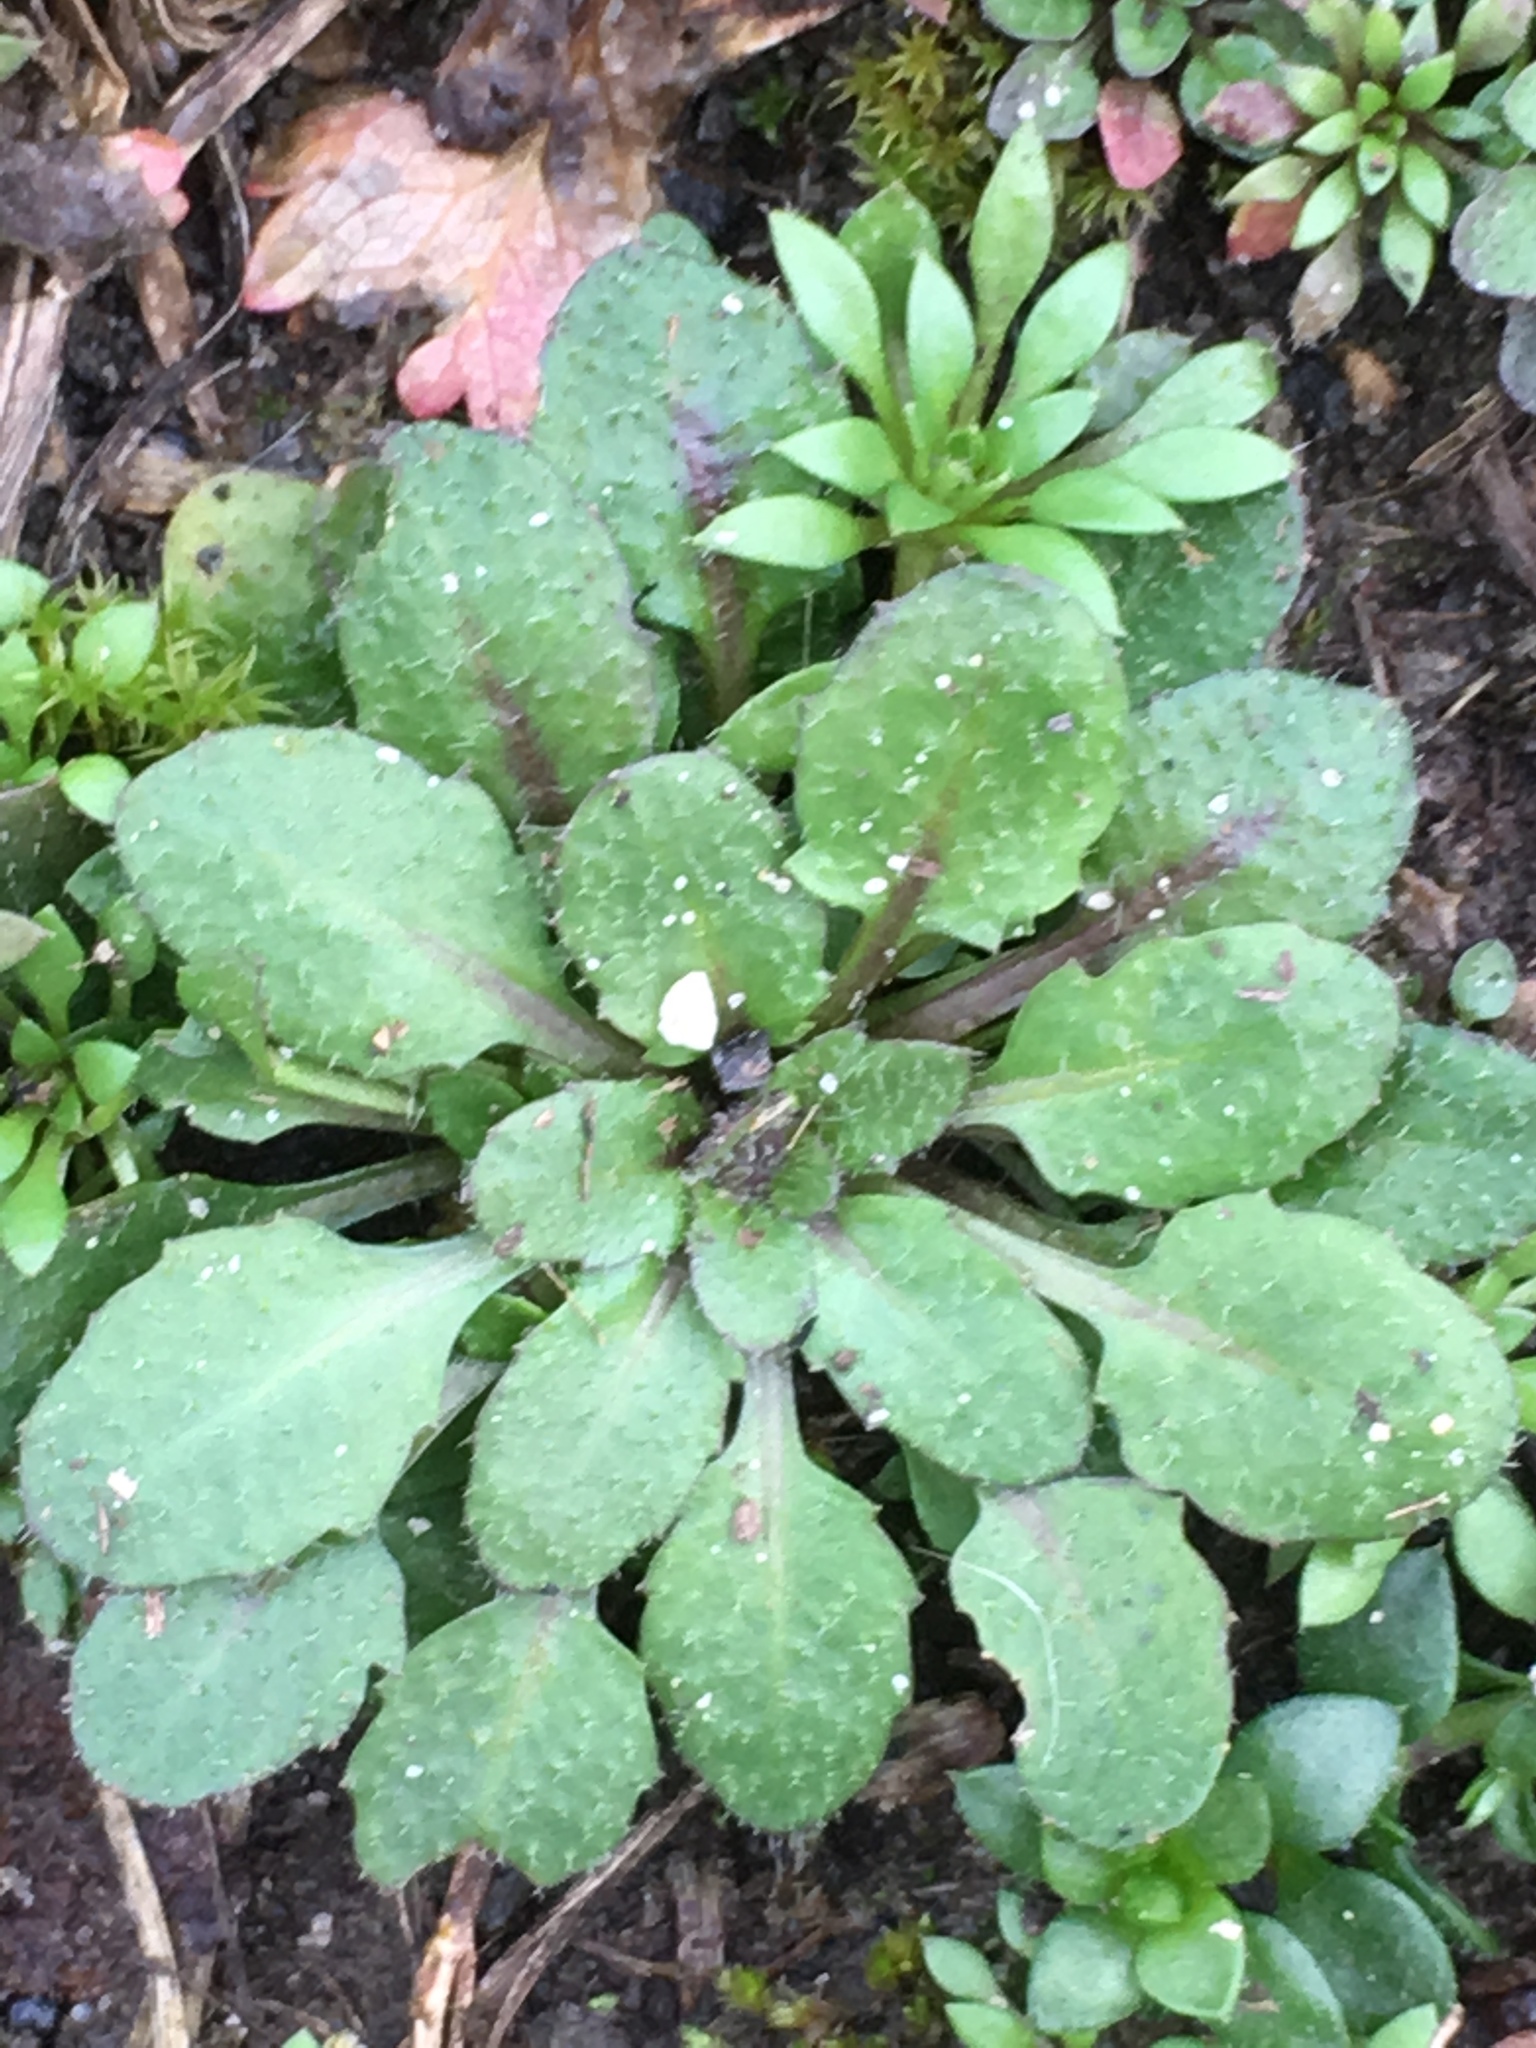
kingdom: Plantae
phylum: Tracheophyta
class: Magnoliopsida
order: Brassicales
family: Brassicaceae
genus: Arabidopsis
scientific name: Arabidopsis thaliana
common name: Thale cress
